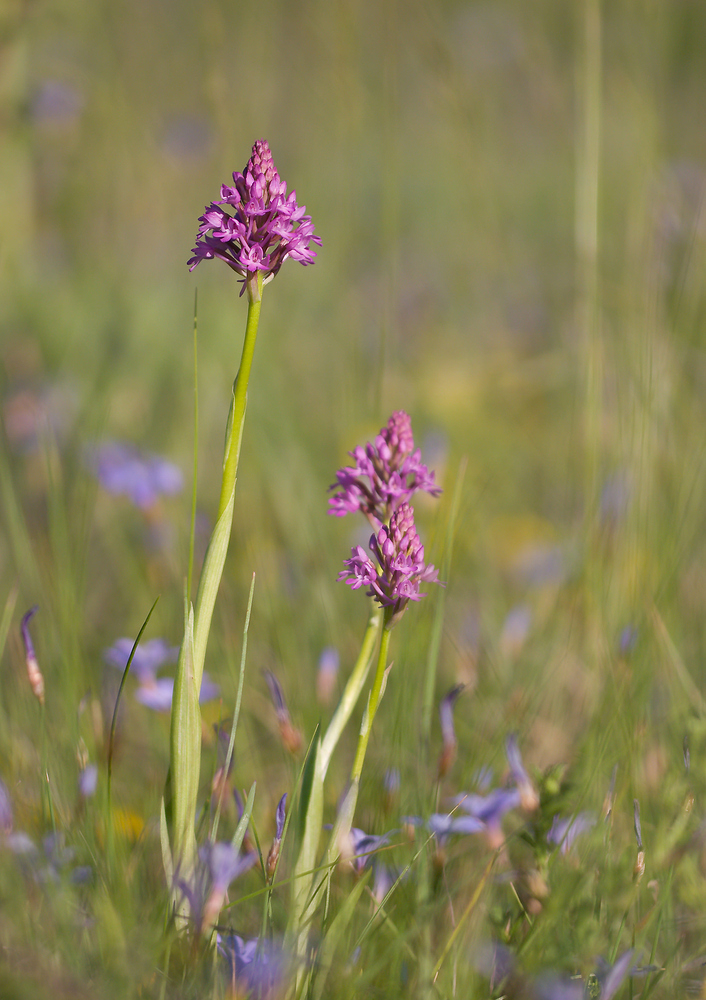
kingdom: Plantae
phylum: Tracheophyta
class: Liliopsida
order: Asparagales
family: Orchidaceae
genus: Anacamptis
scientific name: Anacamptis pyramidalis
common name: Pyramidal orchid
